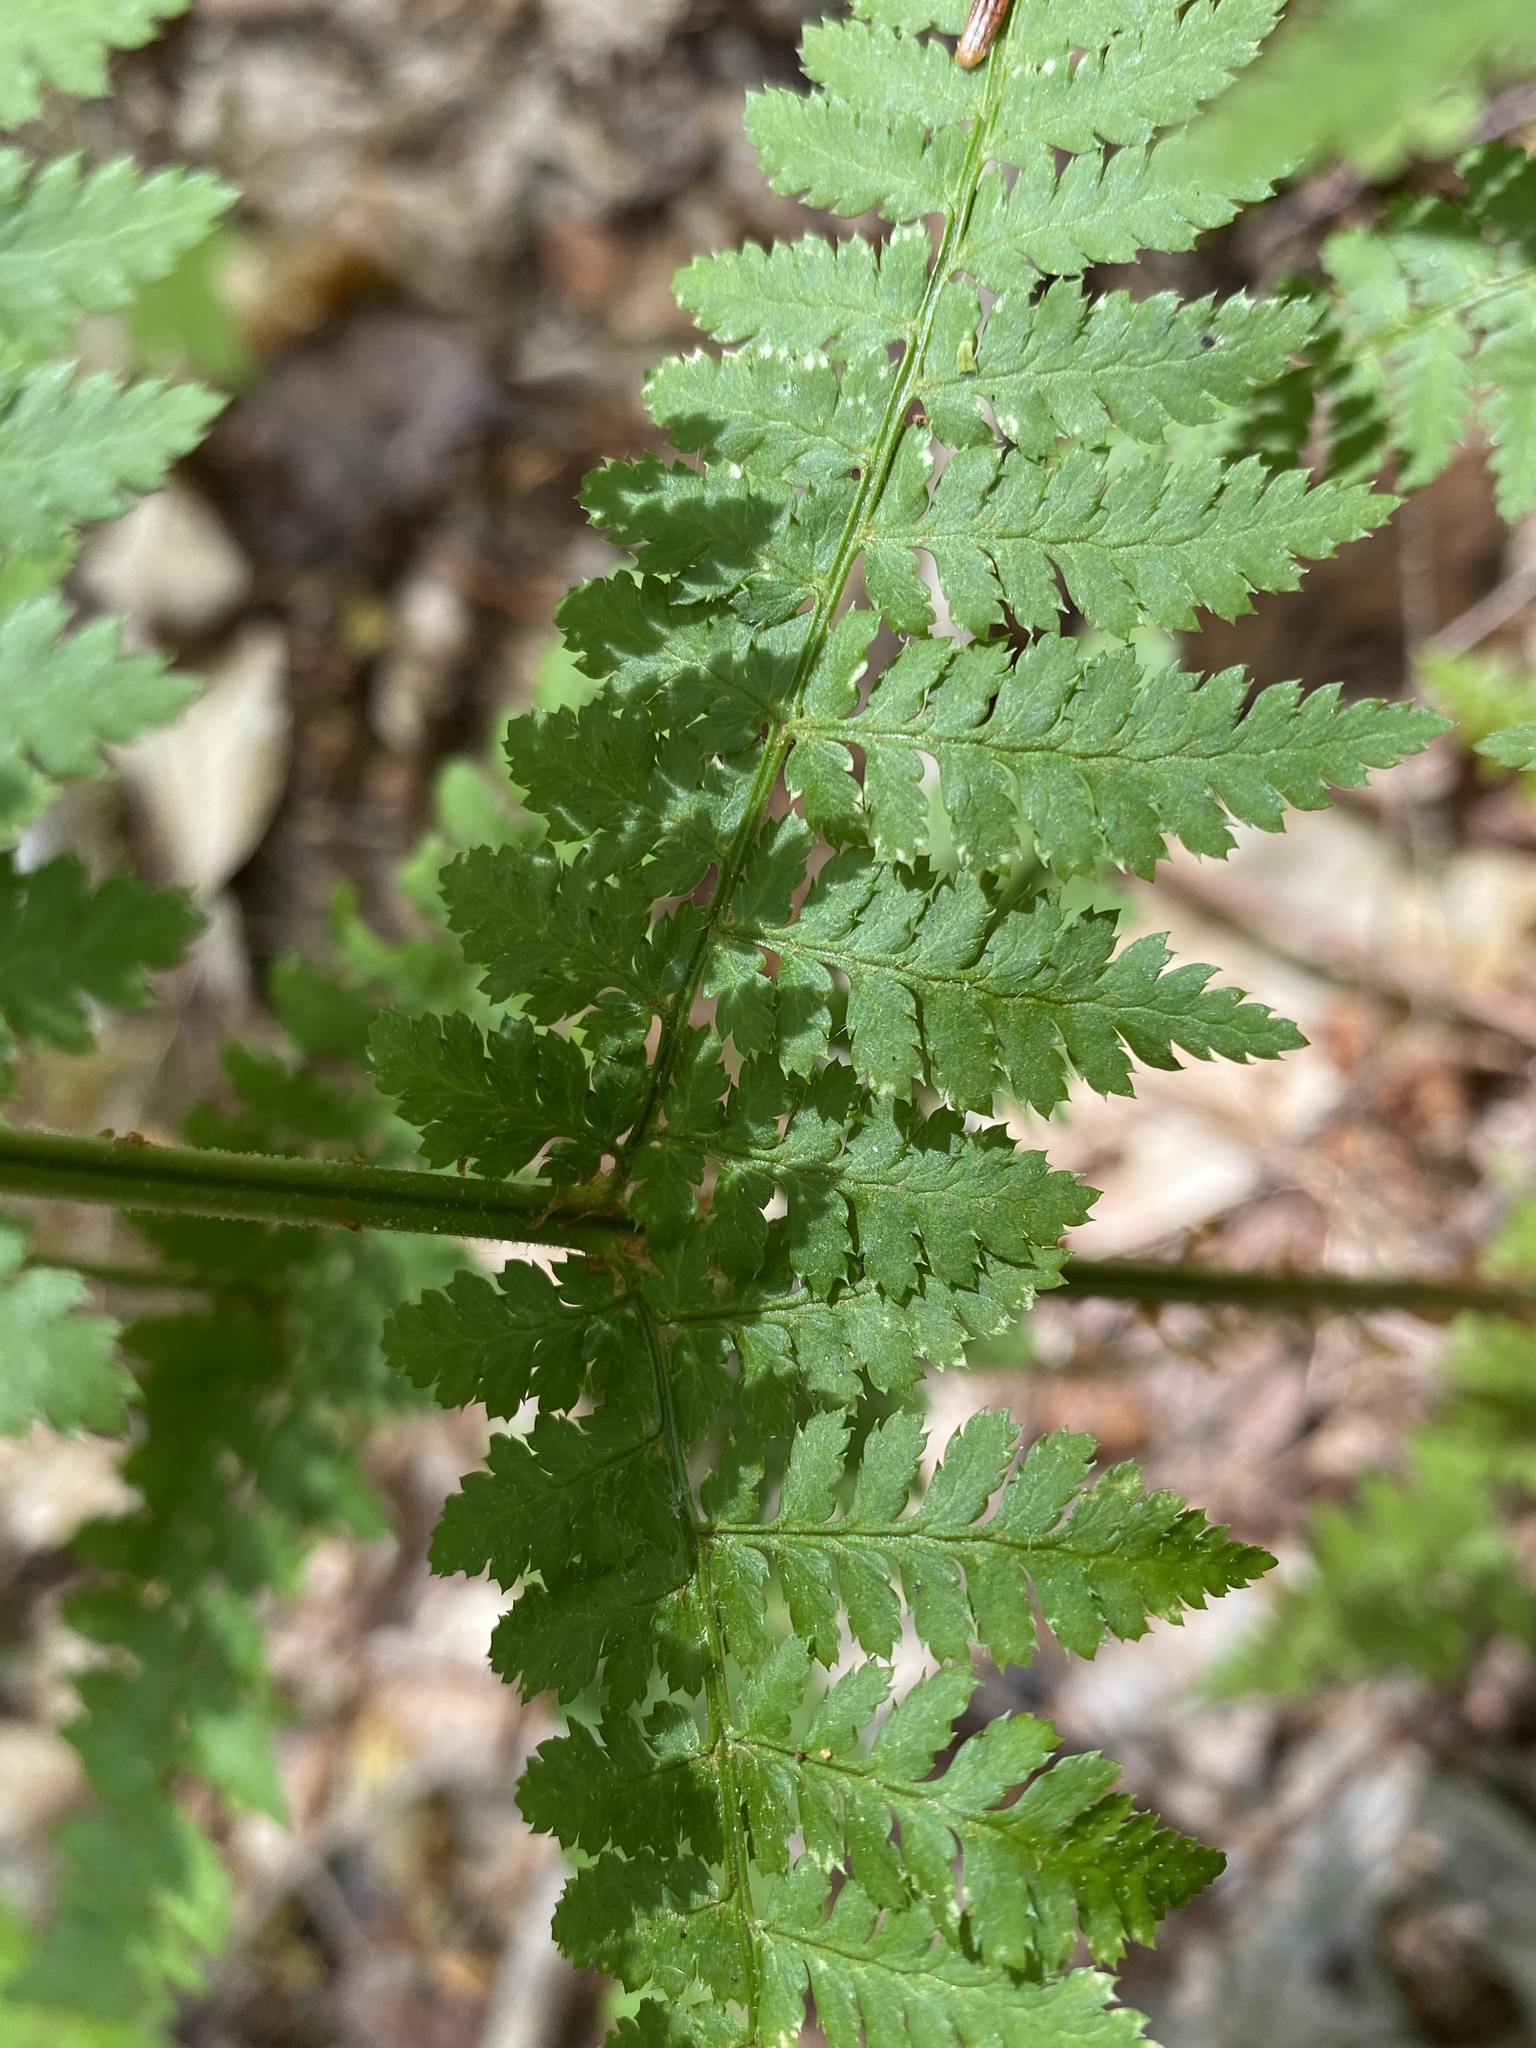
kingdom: Plantae
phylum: Tracheophyta
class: Polypodiopsida
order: Polypodiales
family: Dryopteridaceae
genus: Dryopteris
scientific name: Dryopteris intermedia
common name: Evergreen wood fern
